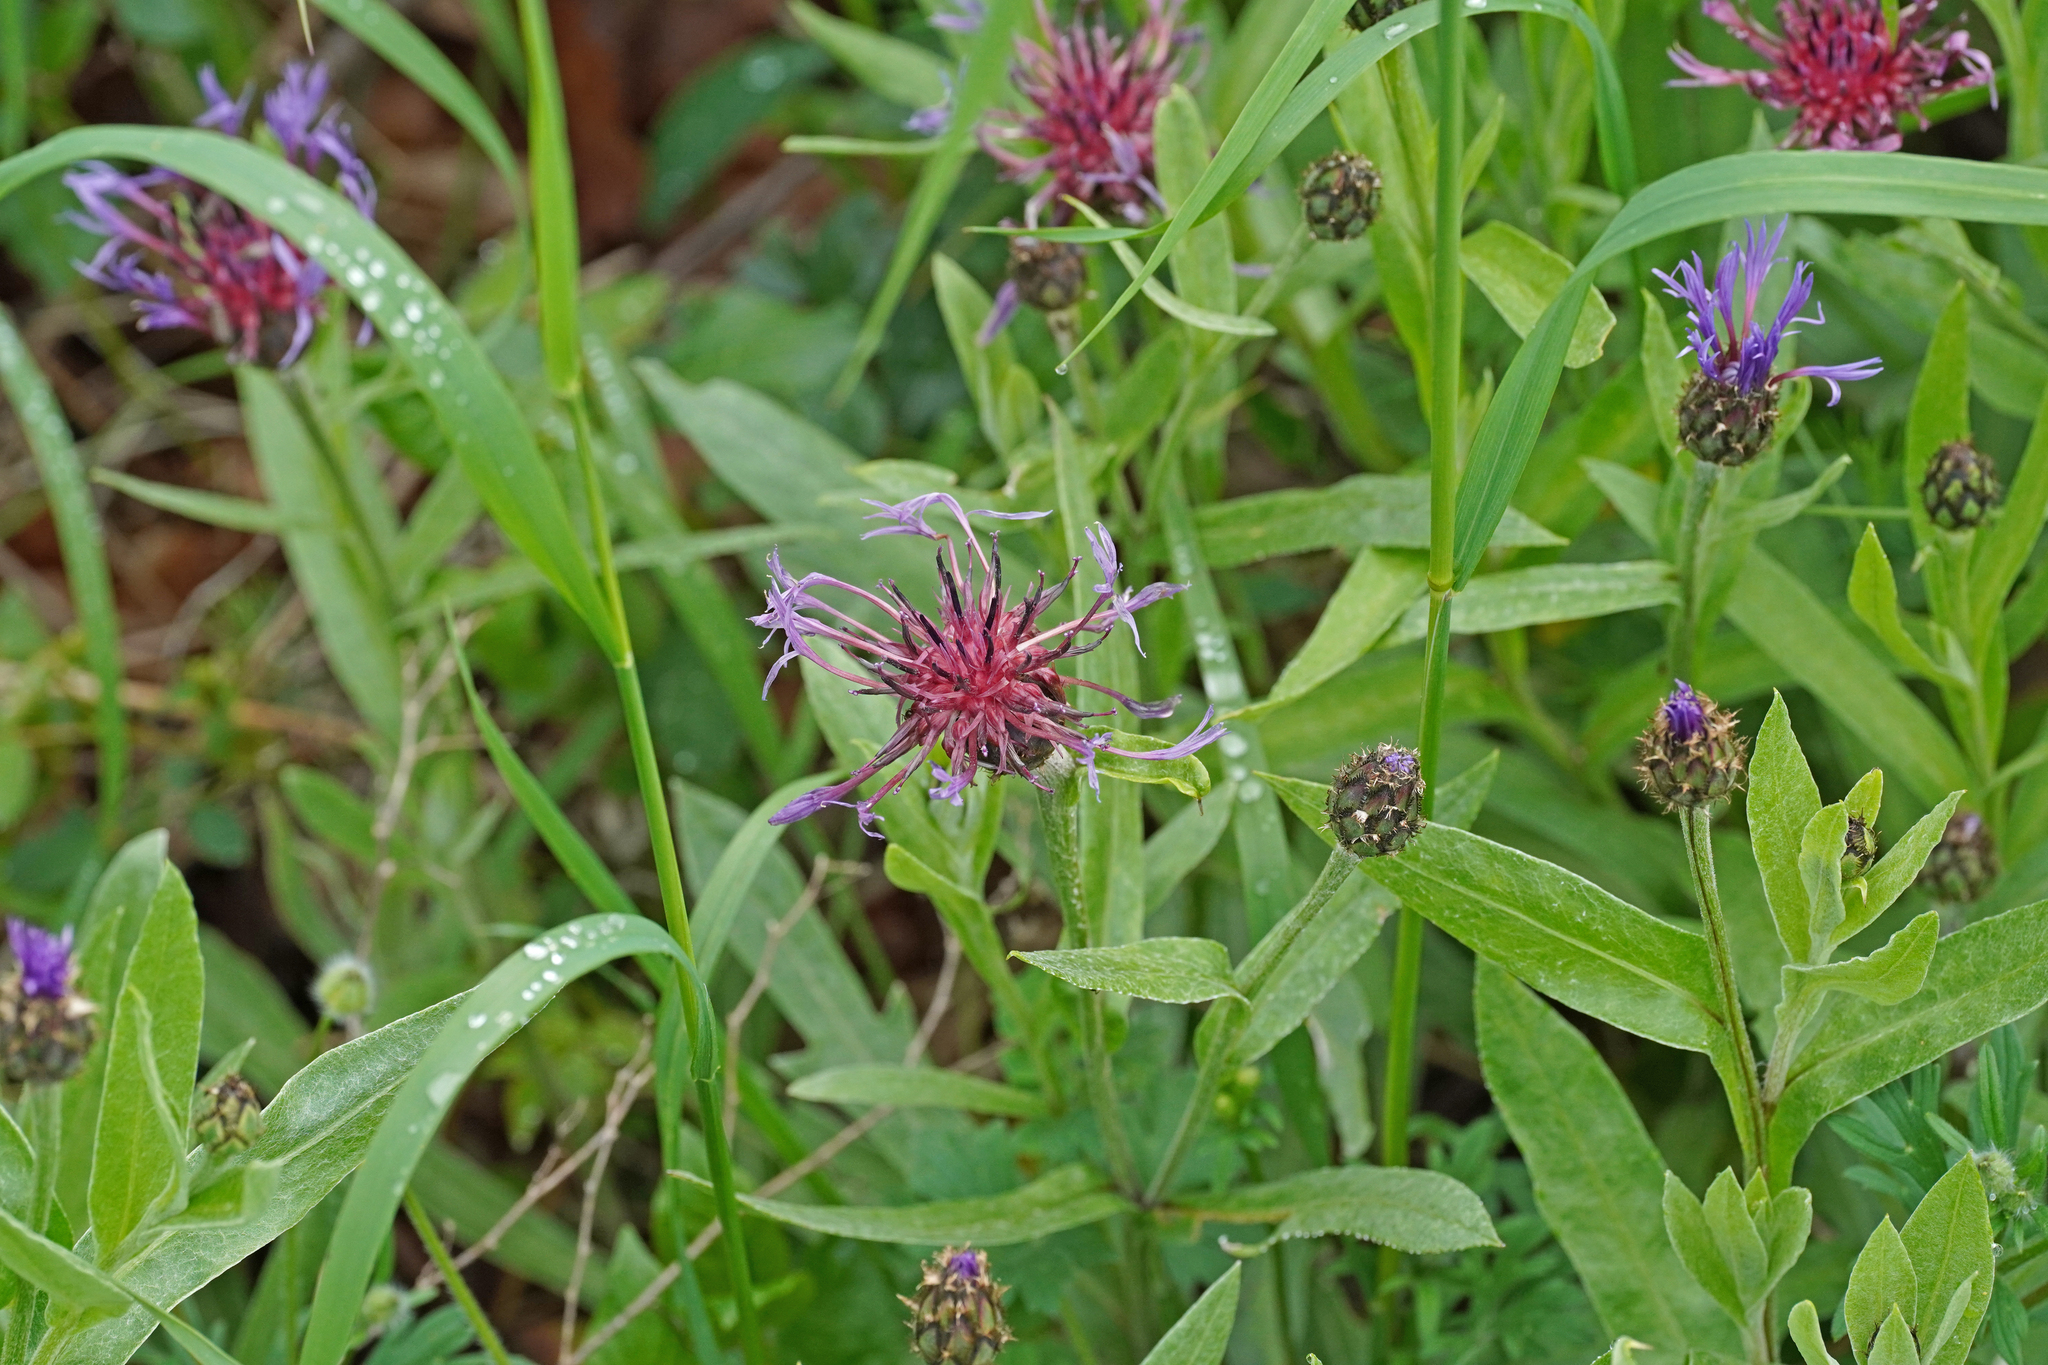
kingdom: Plantae
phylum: Tracheophyta
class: Magnoliopsida
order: Asterales
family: Asteraceae
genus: Centaurea
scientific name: Centaurea triumfettii
